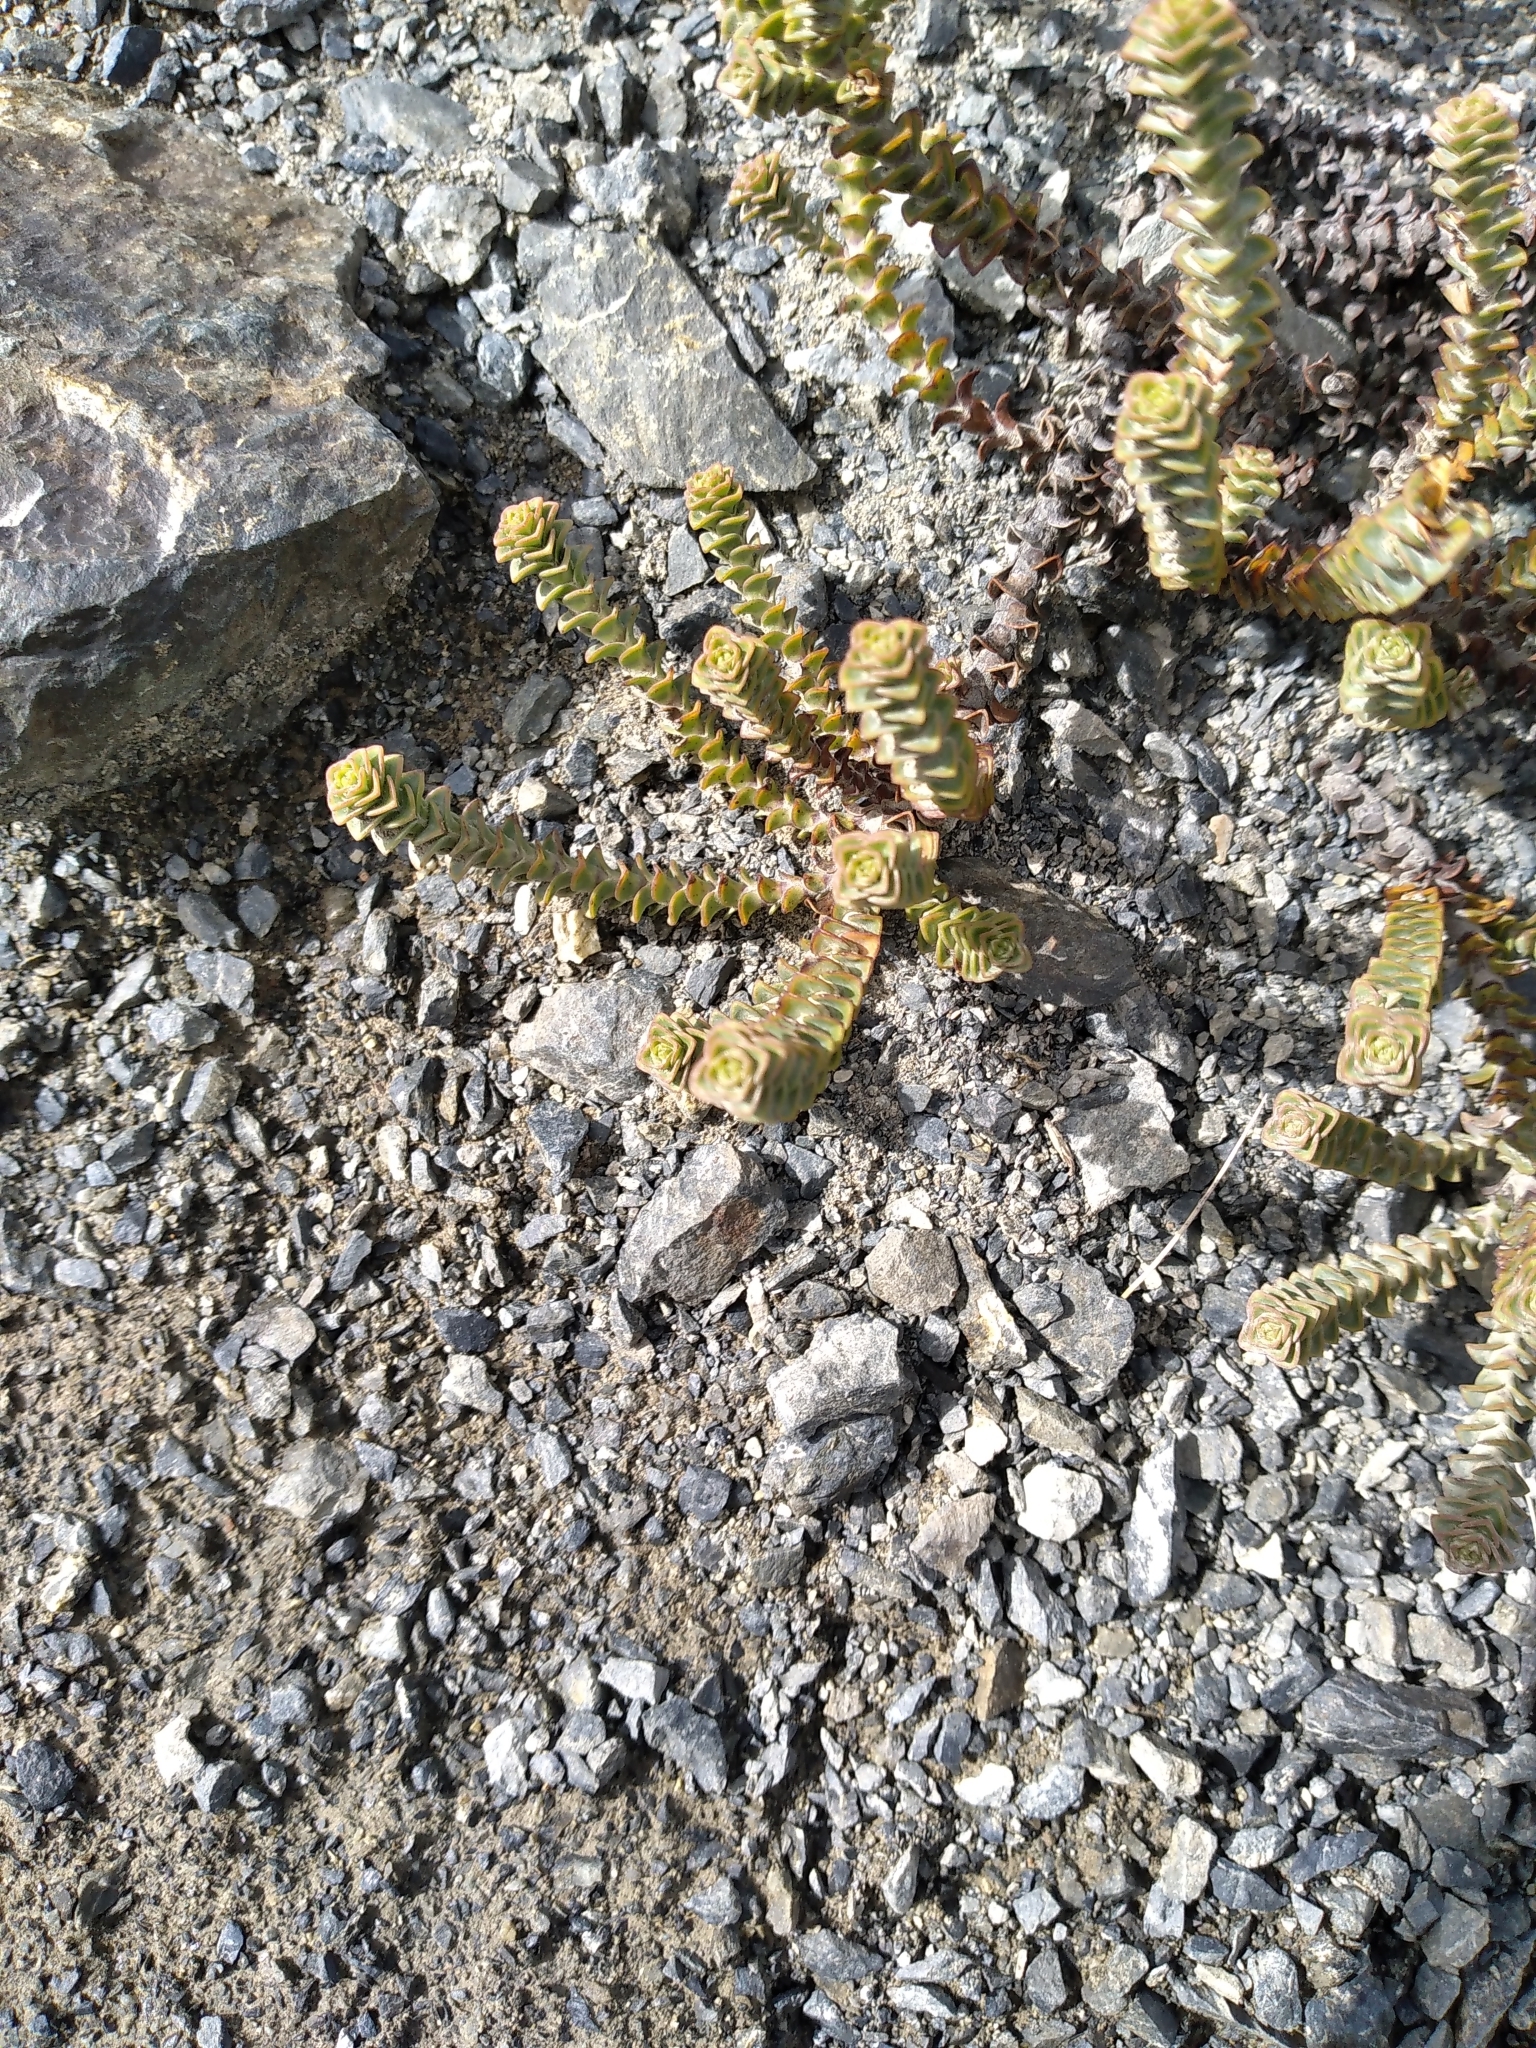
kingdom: Plantae
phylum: Tracheophyta
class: Magnoliopsida
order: Lamiales
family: Plantaginaceae
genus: Veronica
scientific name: Veronica epacridea
